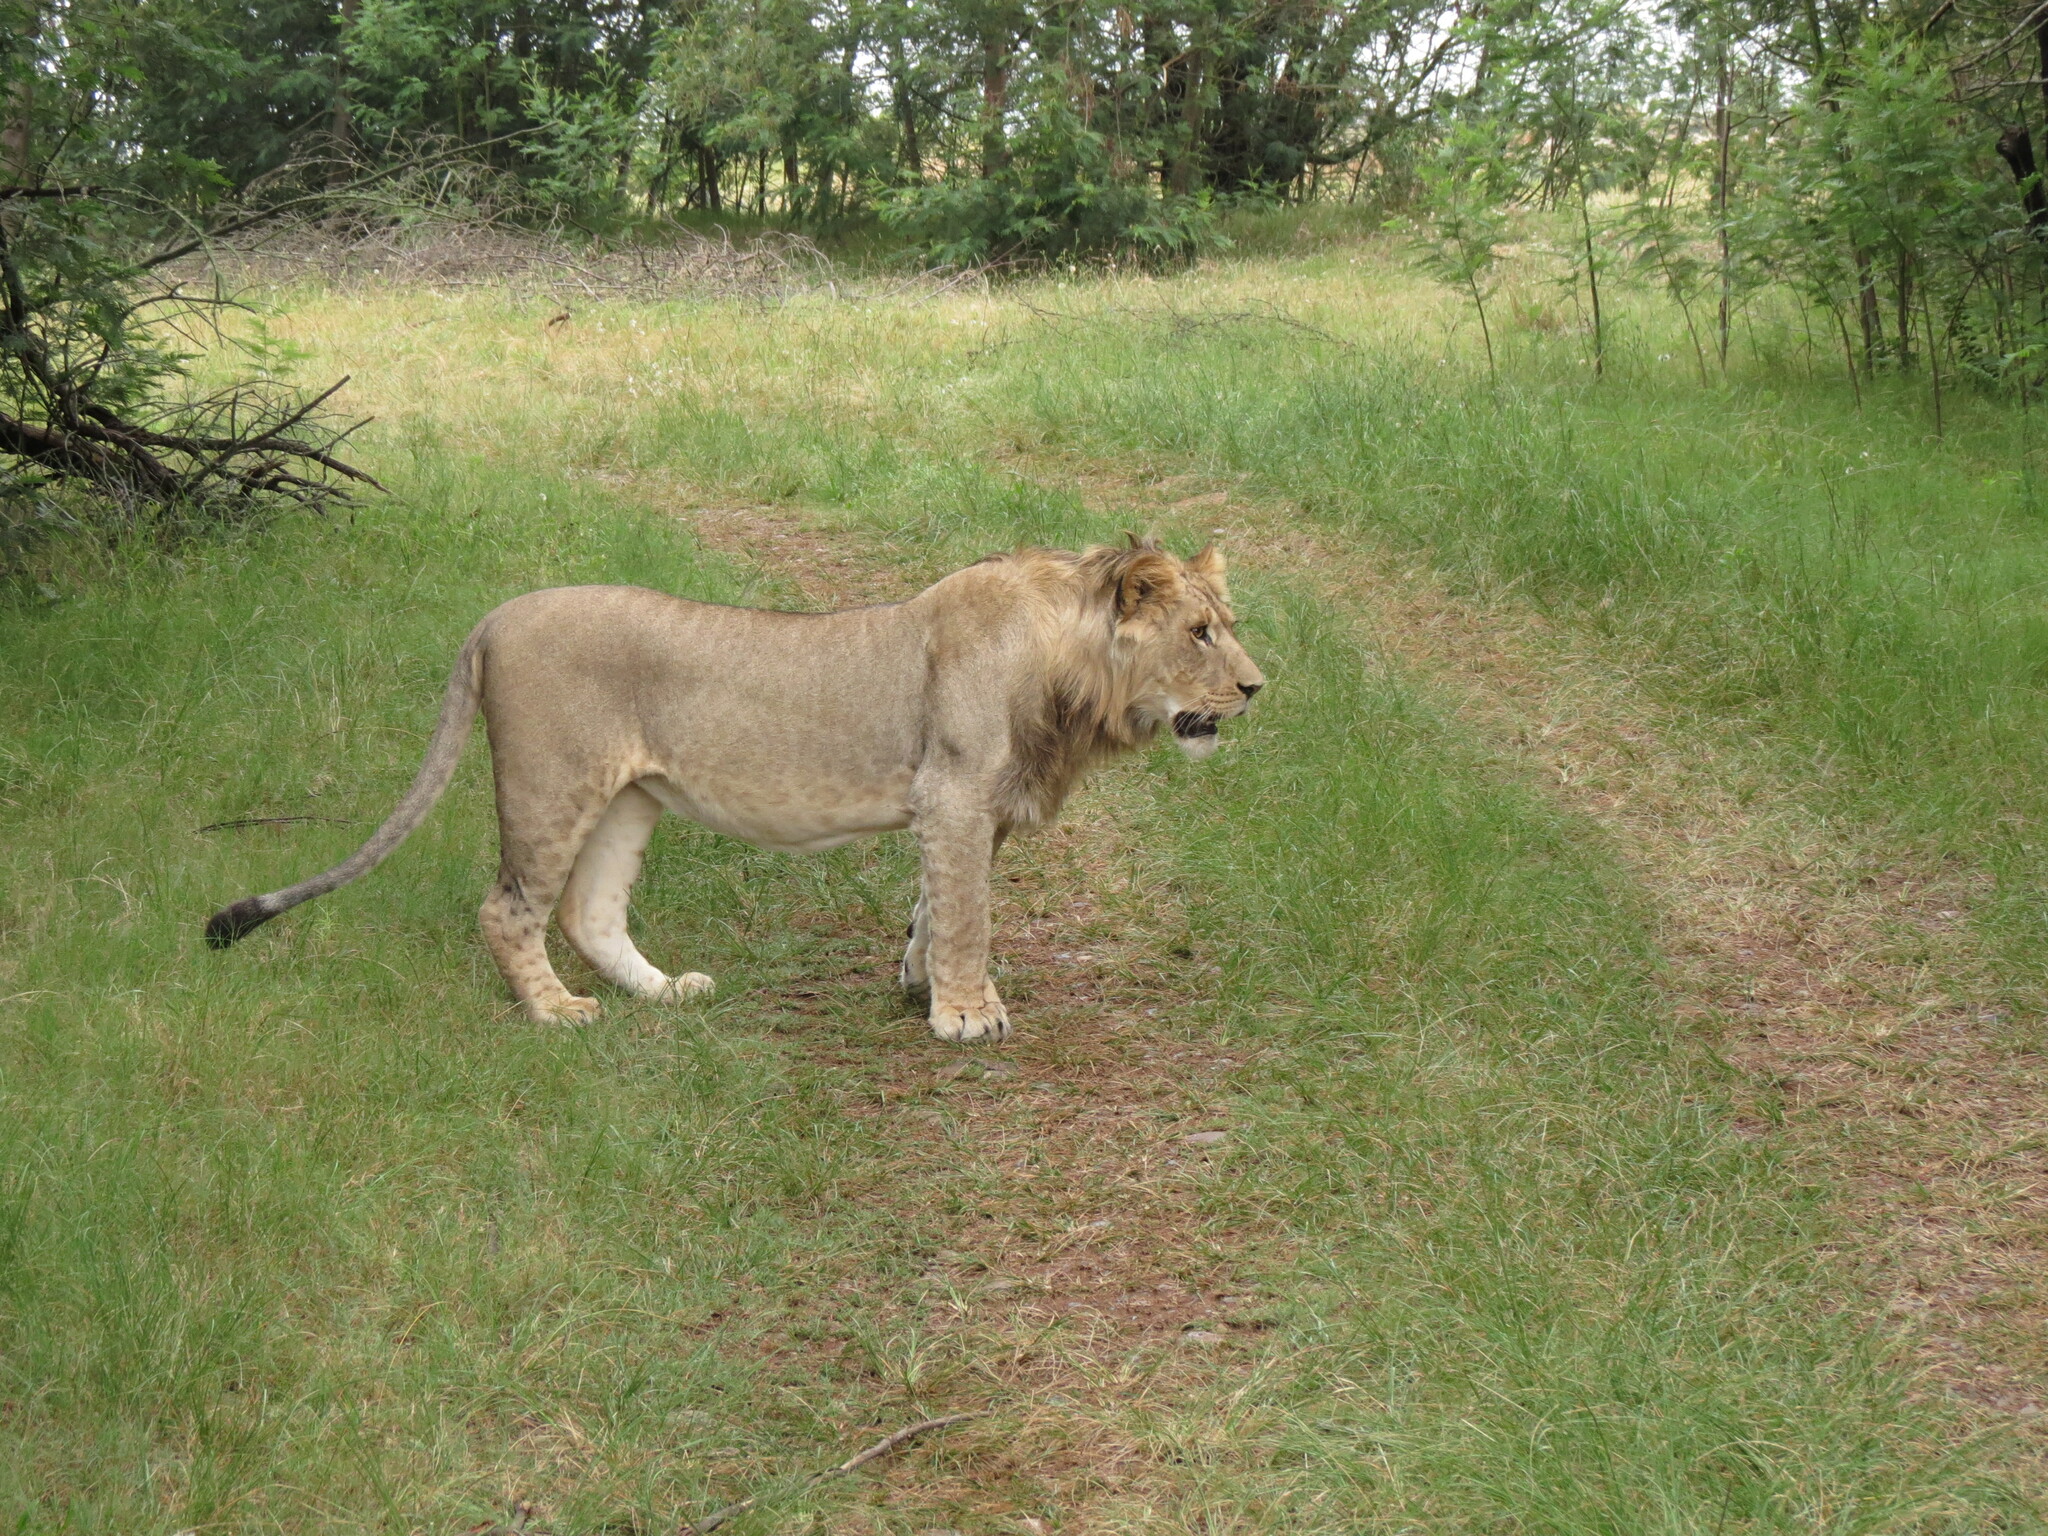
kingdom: Animalia
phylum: Chordata
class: Mammalia
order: Carnivora
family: Felidae
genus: Panthera
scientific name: Panthera leo
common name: Lion
